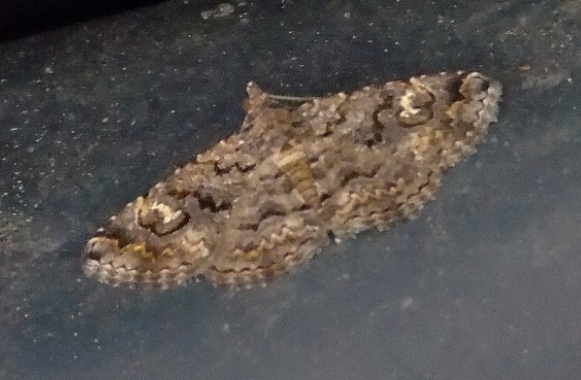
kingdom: Animalia
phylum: Arthropoda
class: Insecta
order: Lepidoptera
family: Erebidae
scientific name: Erebidae
